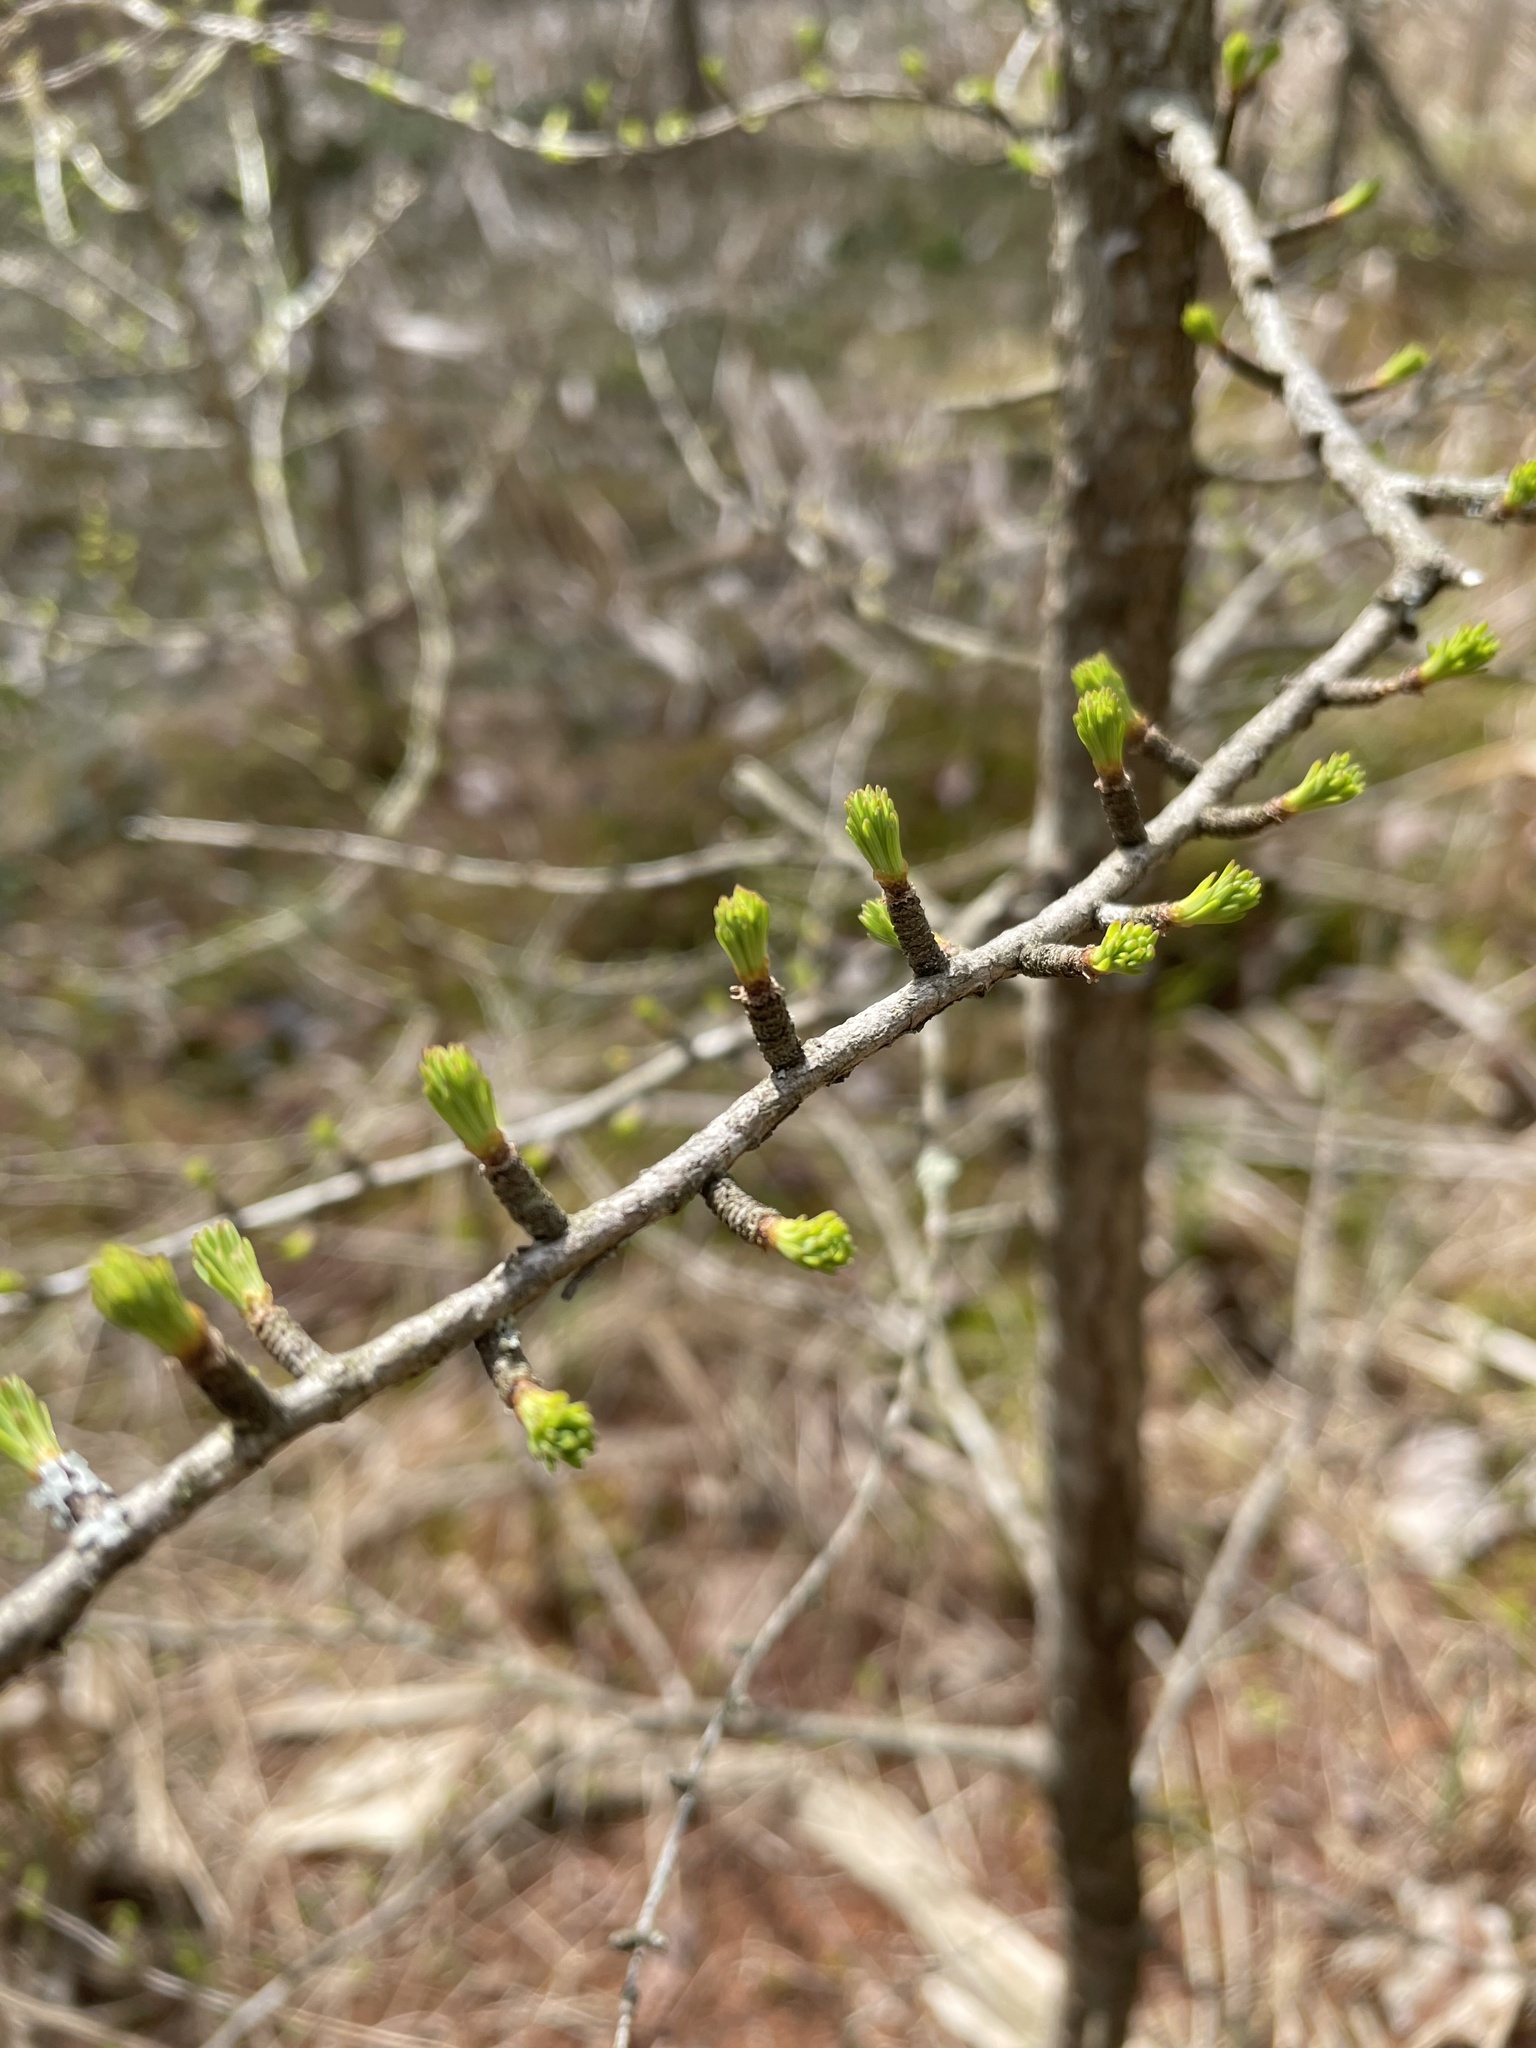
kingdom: Plantae
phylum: Tracheophyta
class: Pinopsida
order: Pinales
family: Pinaceae
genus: Larix
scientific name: Larix laricina
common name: American larch
